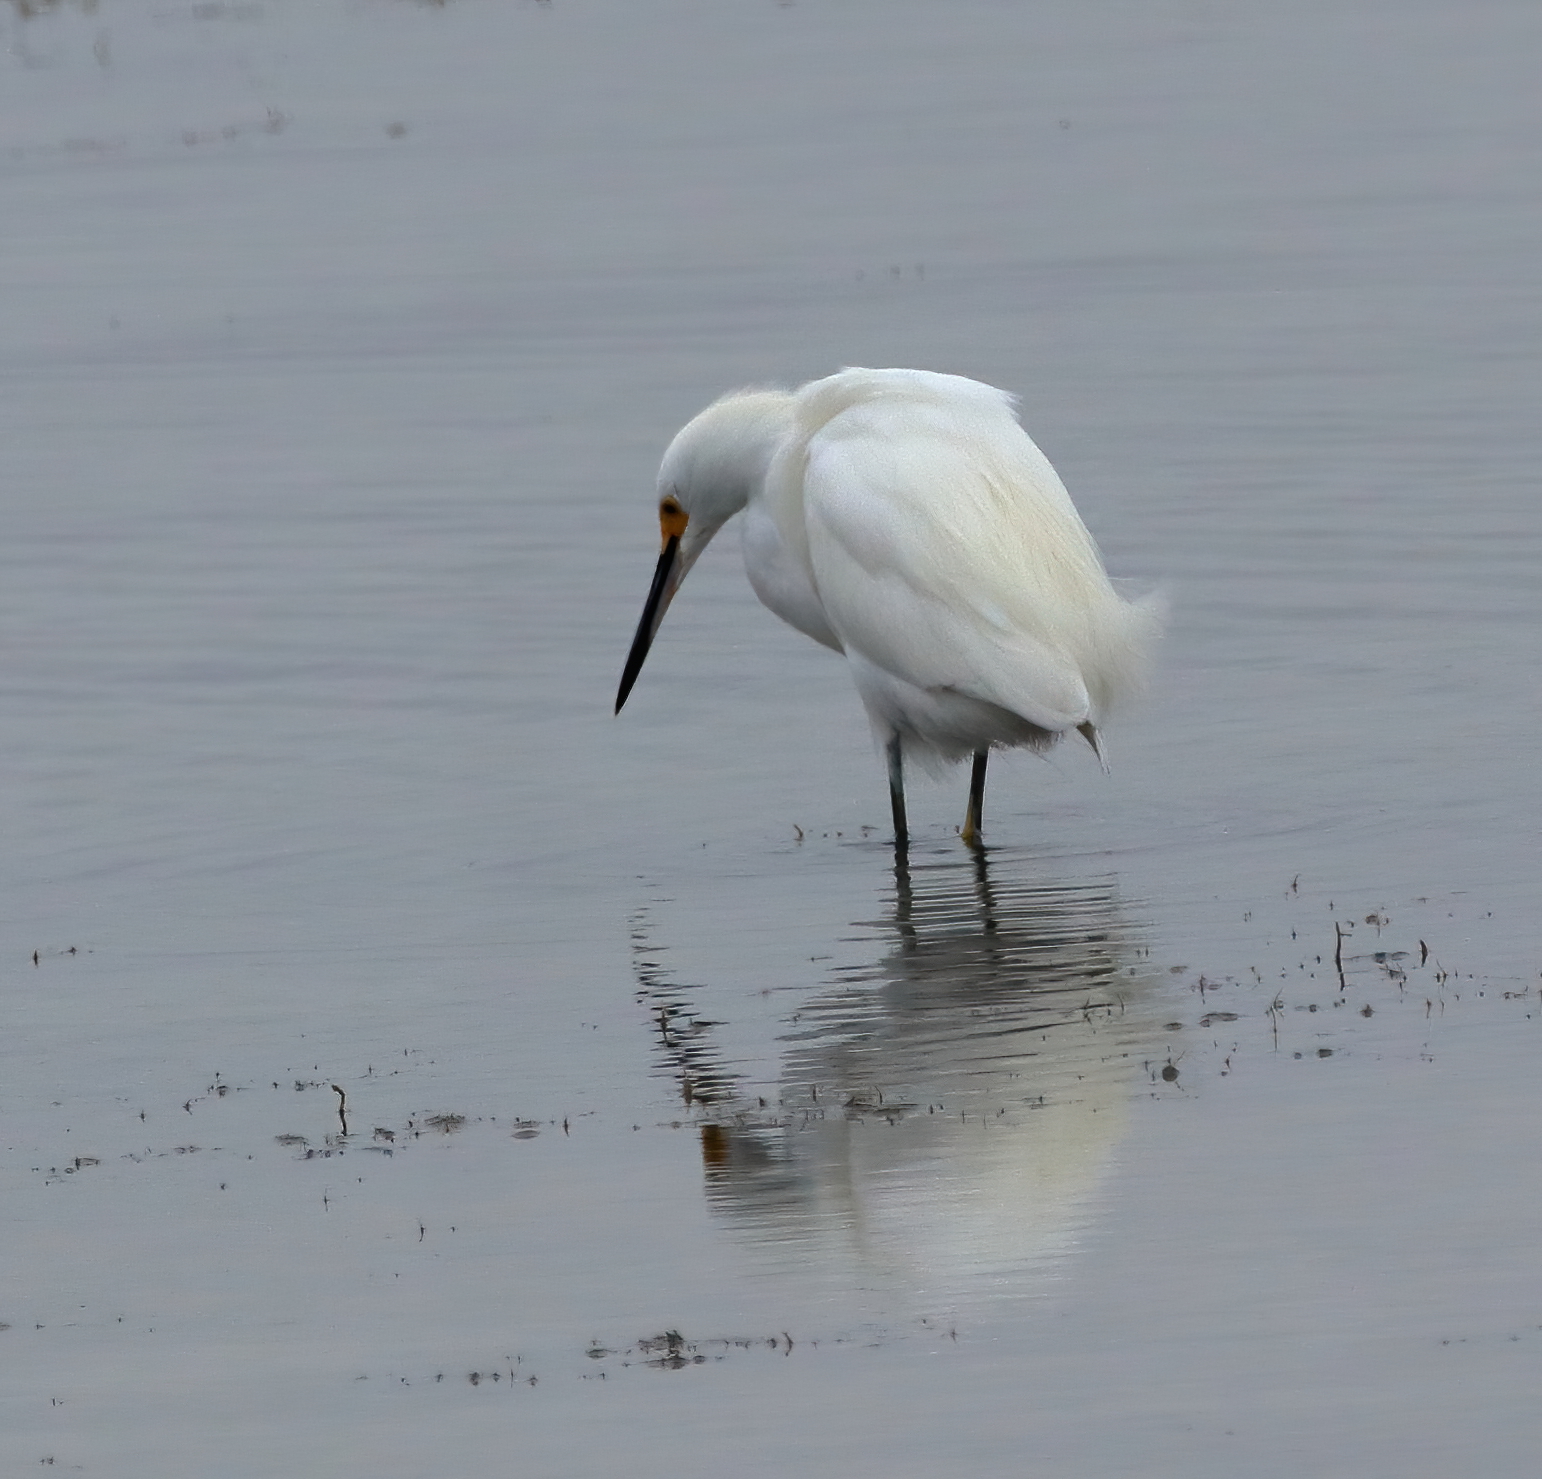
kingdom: Animalia
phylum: Chordata
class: Aves
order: Pelecaniformes
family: Ardeidae
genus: Egretta
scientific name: Egretta thula
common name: Snowy egret
